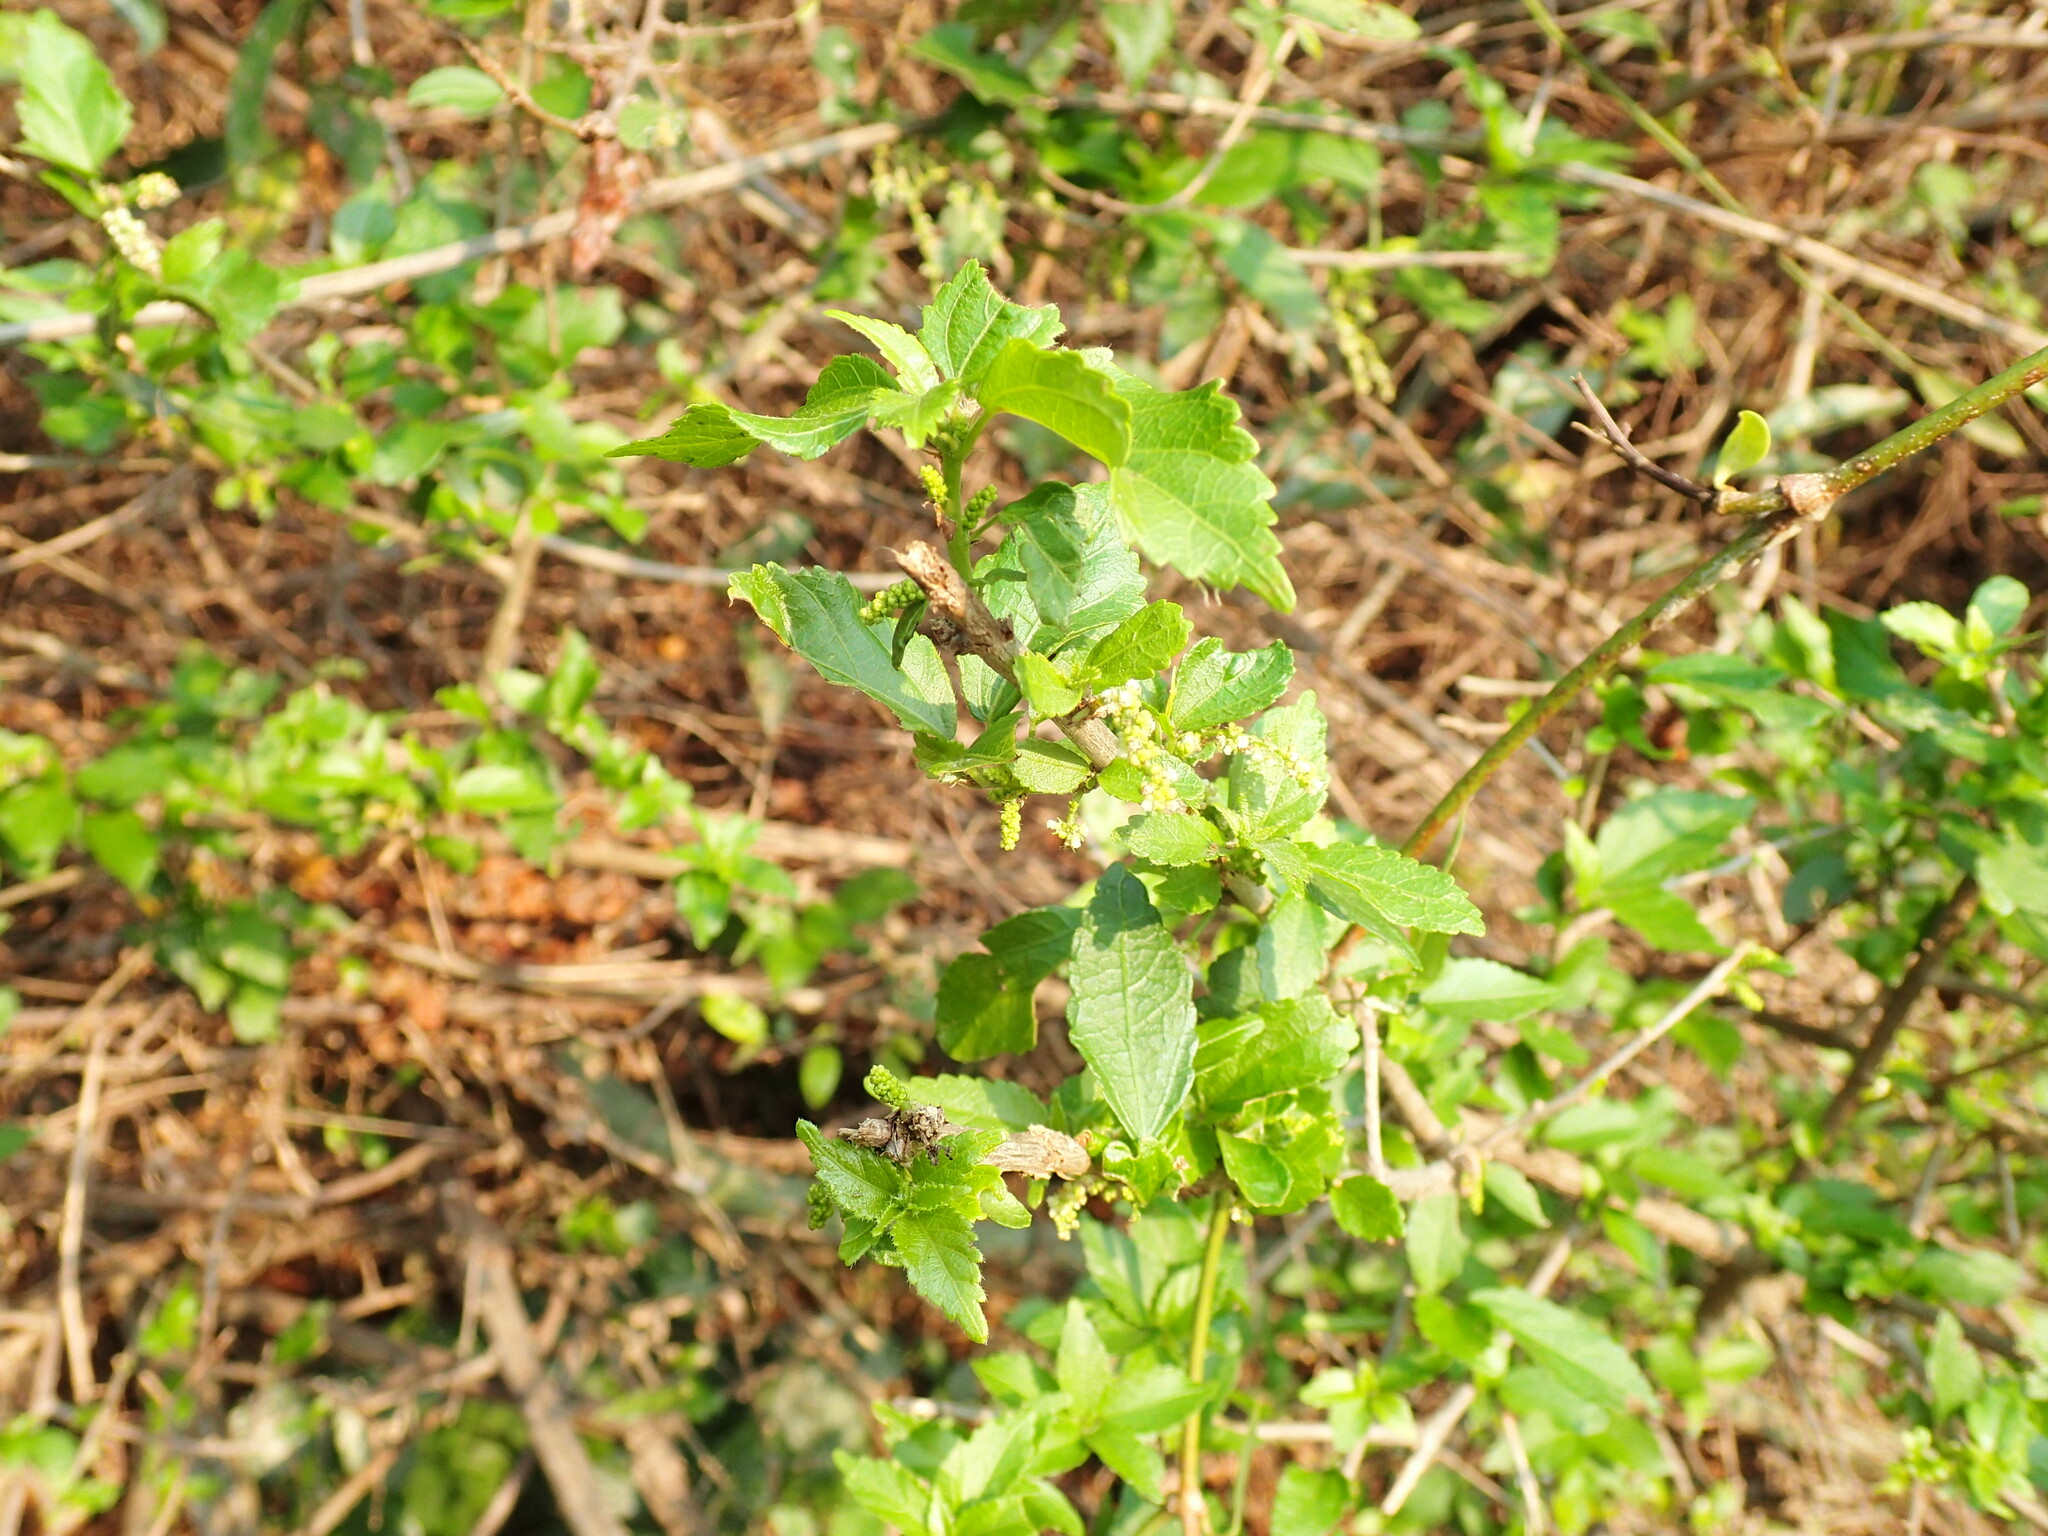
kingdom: Plantae
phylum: Tracheophyta
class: Magnoliopsida
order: Malpighiales
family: Euphorbiaceae
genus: Acalypha
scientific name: Acalypha glabrata
